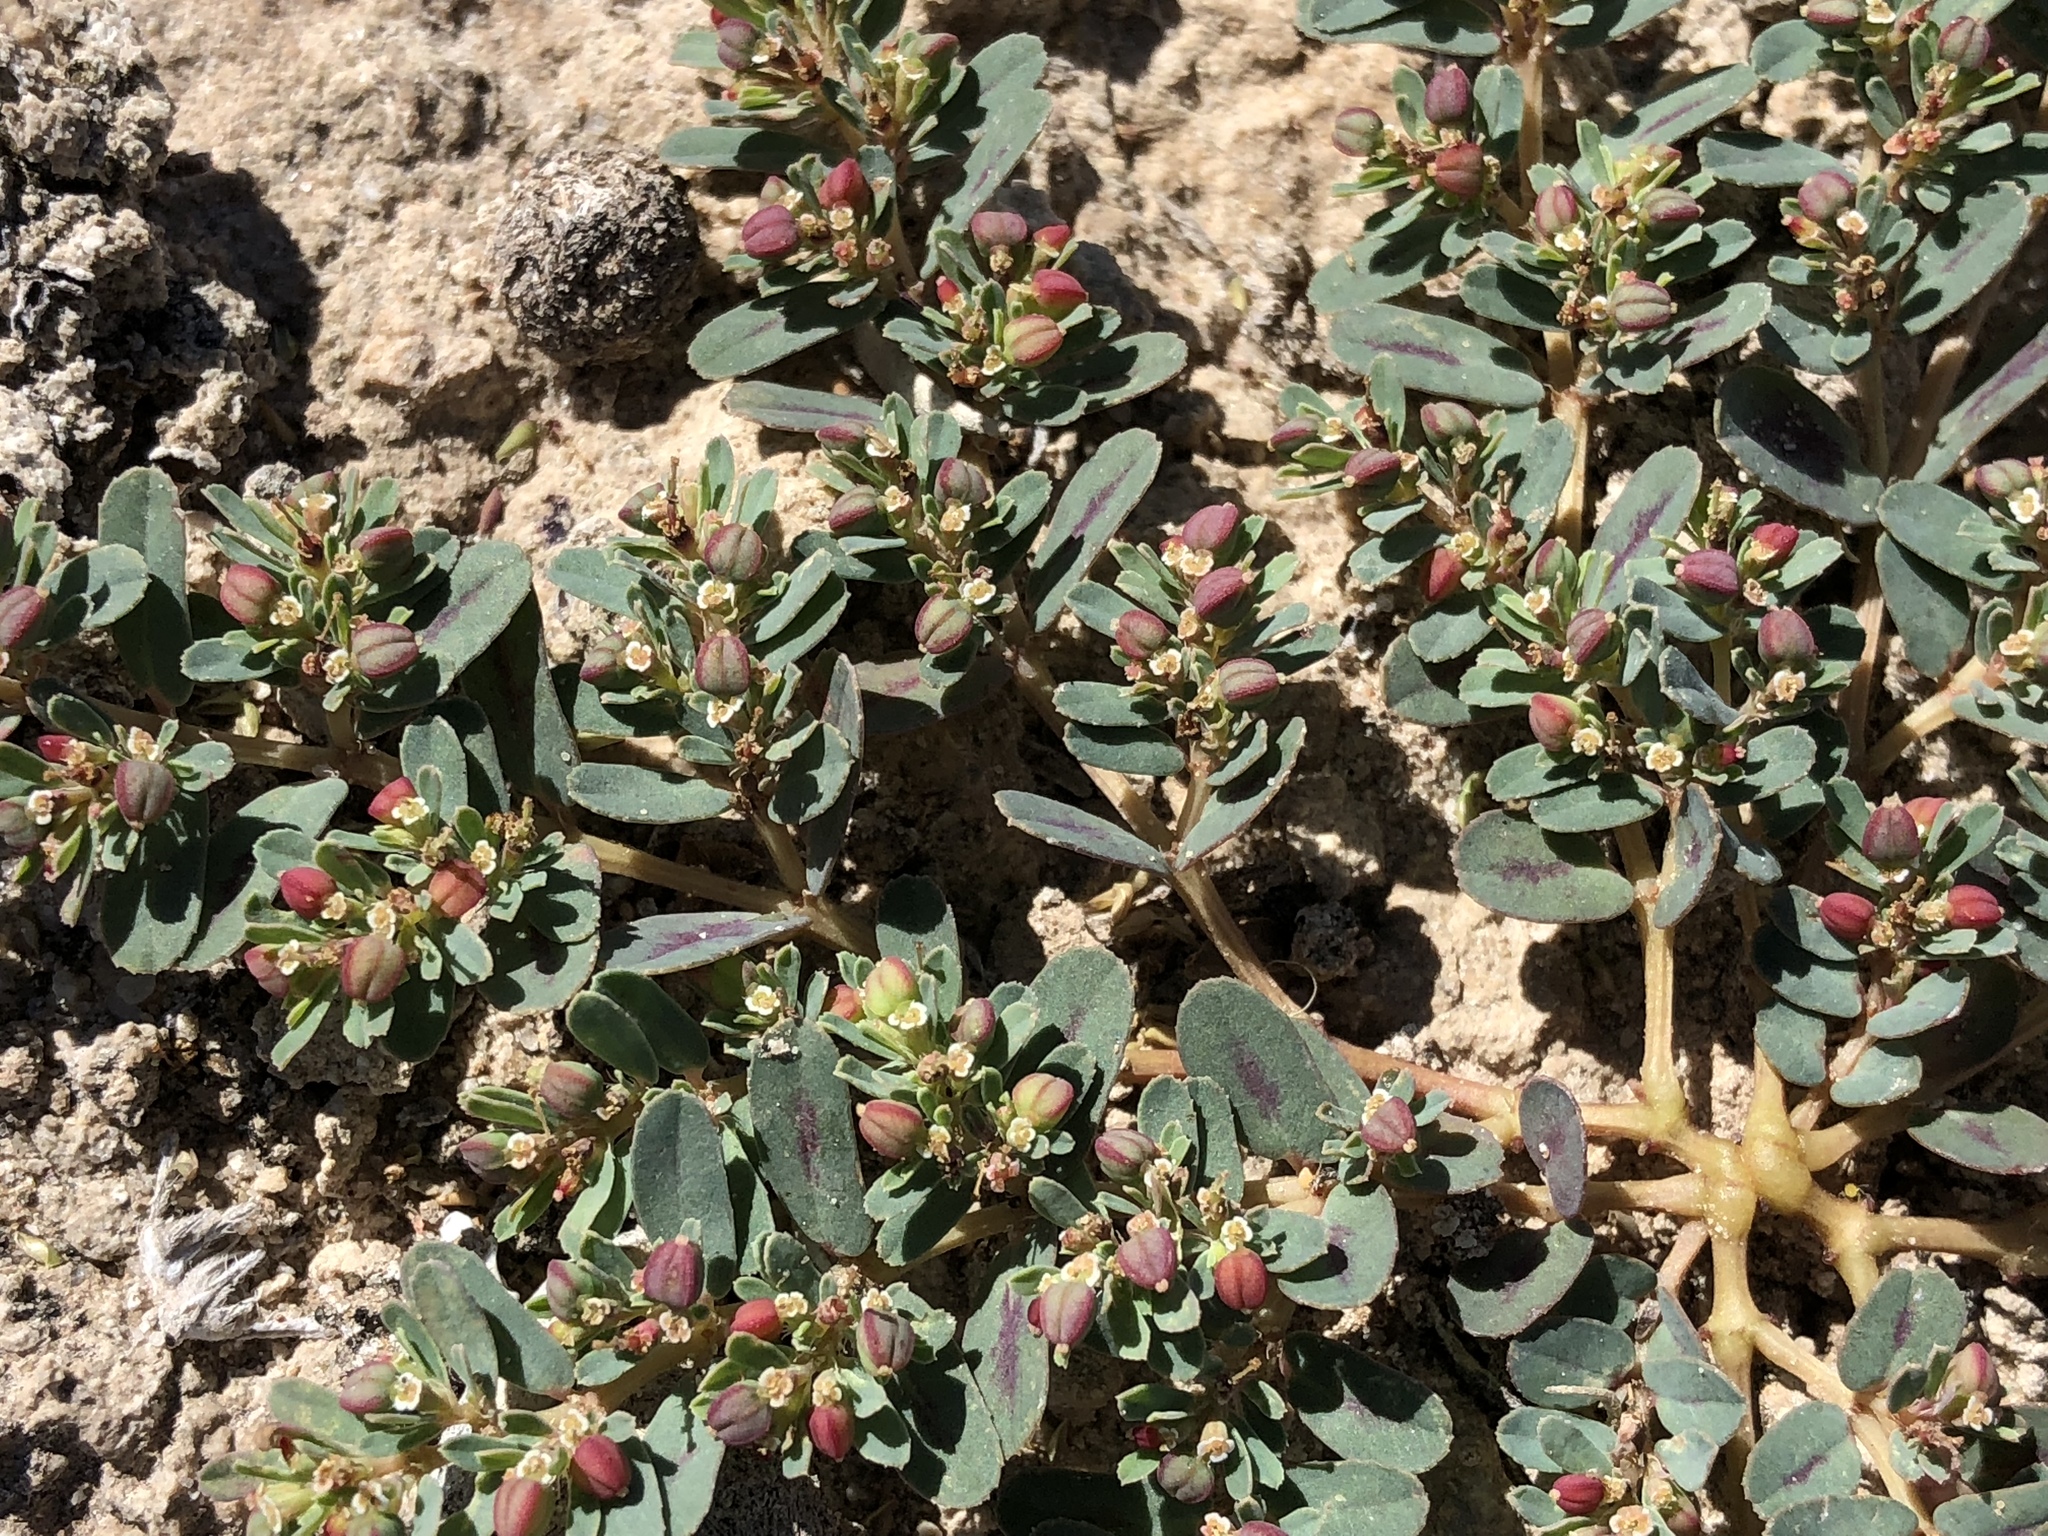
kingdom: Plantae
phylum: Tracheophyta
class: Magnoliopsida
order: Malpighiales
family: Euphorbiaceae
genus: Euphorbia
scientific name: Euphorbia serpillifolia
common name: Thyme-leaf spurge
